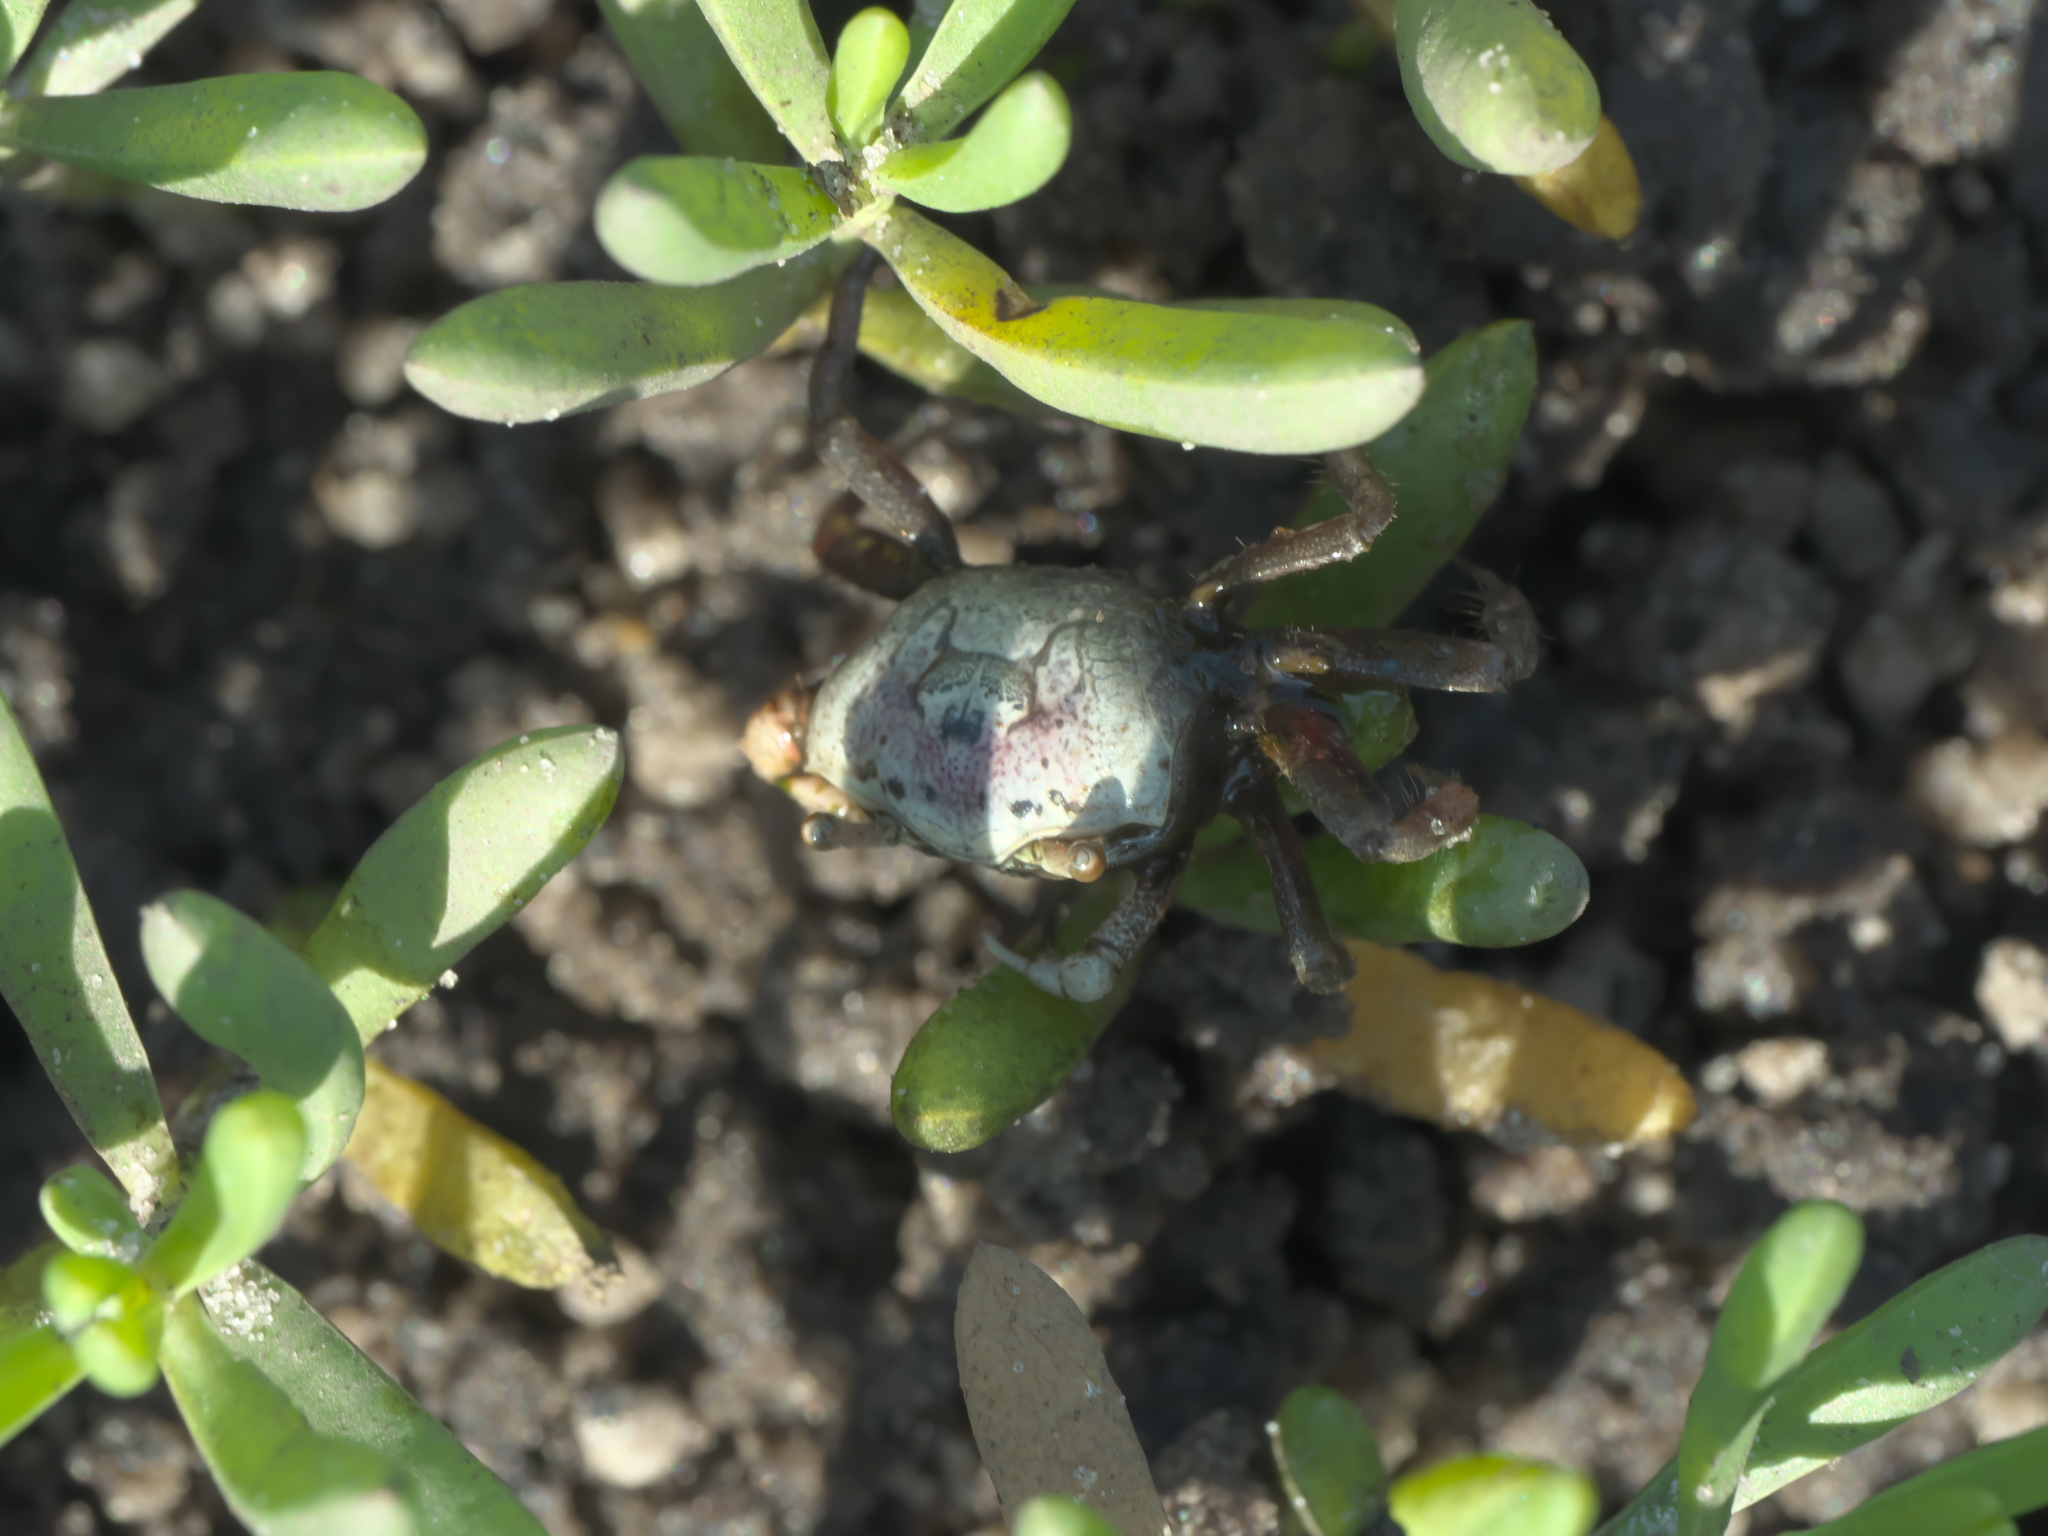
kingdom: Animalia
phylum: Arthropoda
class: Malacostraca
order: Decapoda
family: Ocypodidae
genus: Leptuca
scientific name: Leptuca pugilator
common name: Atlantic sand fiddler crab
